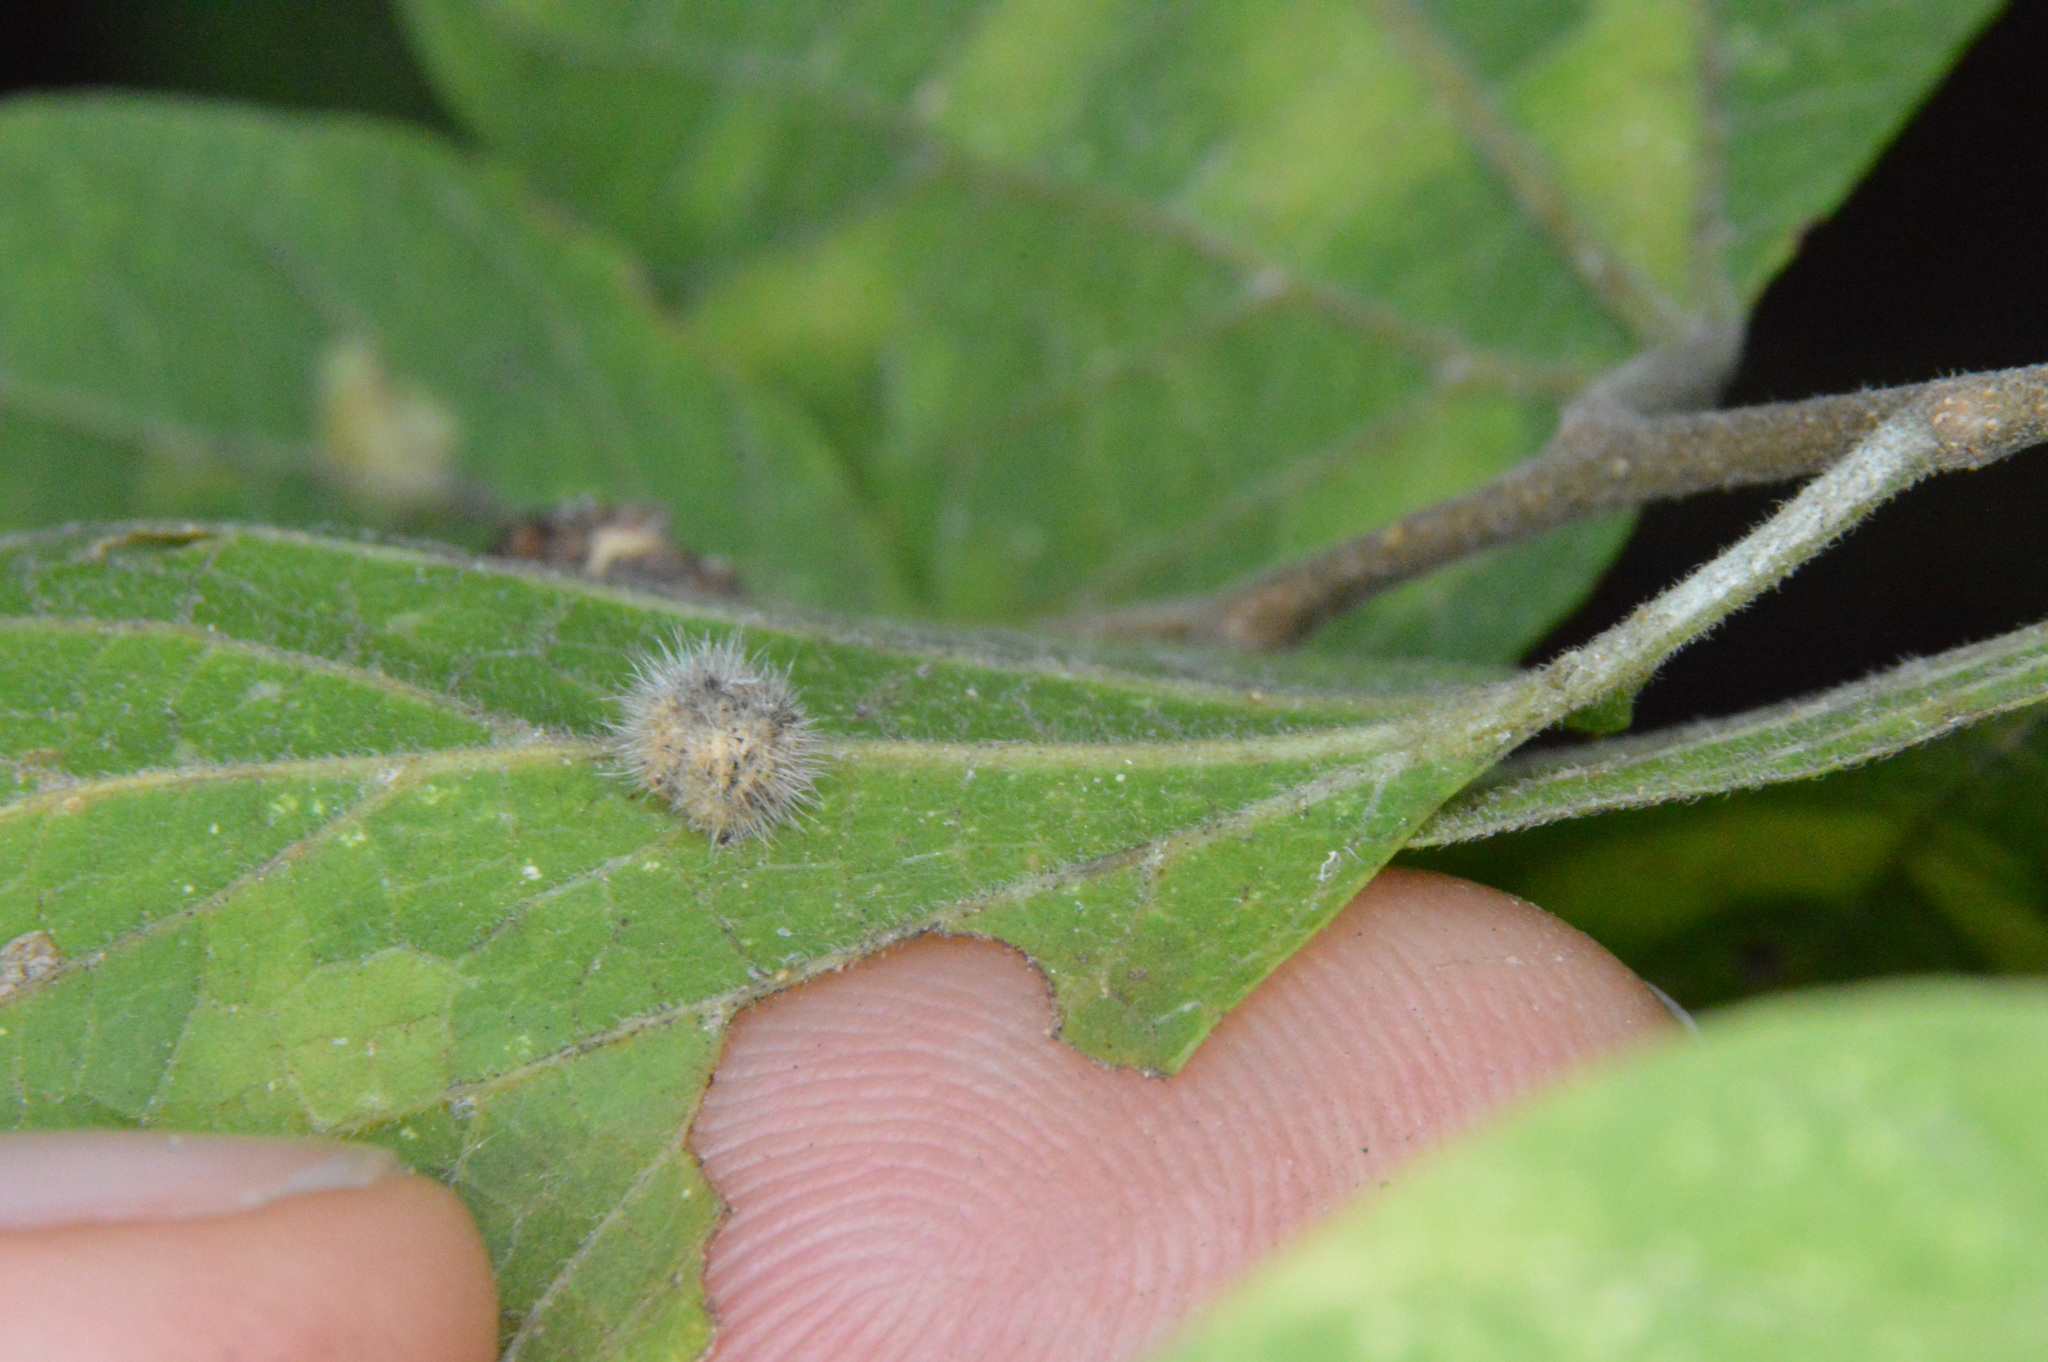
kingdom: Animalia
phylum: Arthropoda
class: Insecta
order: Diptera
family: Cecidomyiidae
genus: Celticecis
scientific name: Celticecis pubescens
